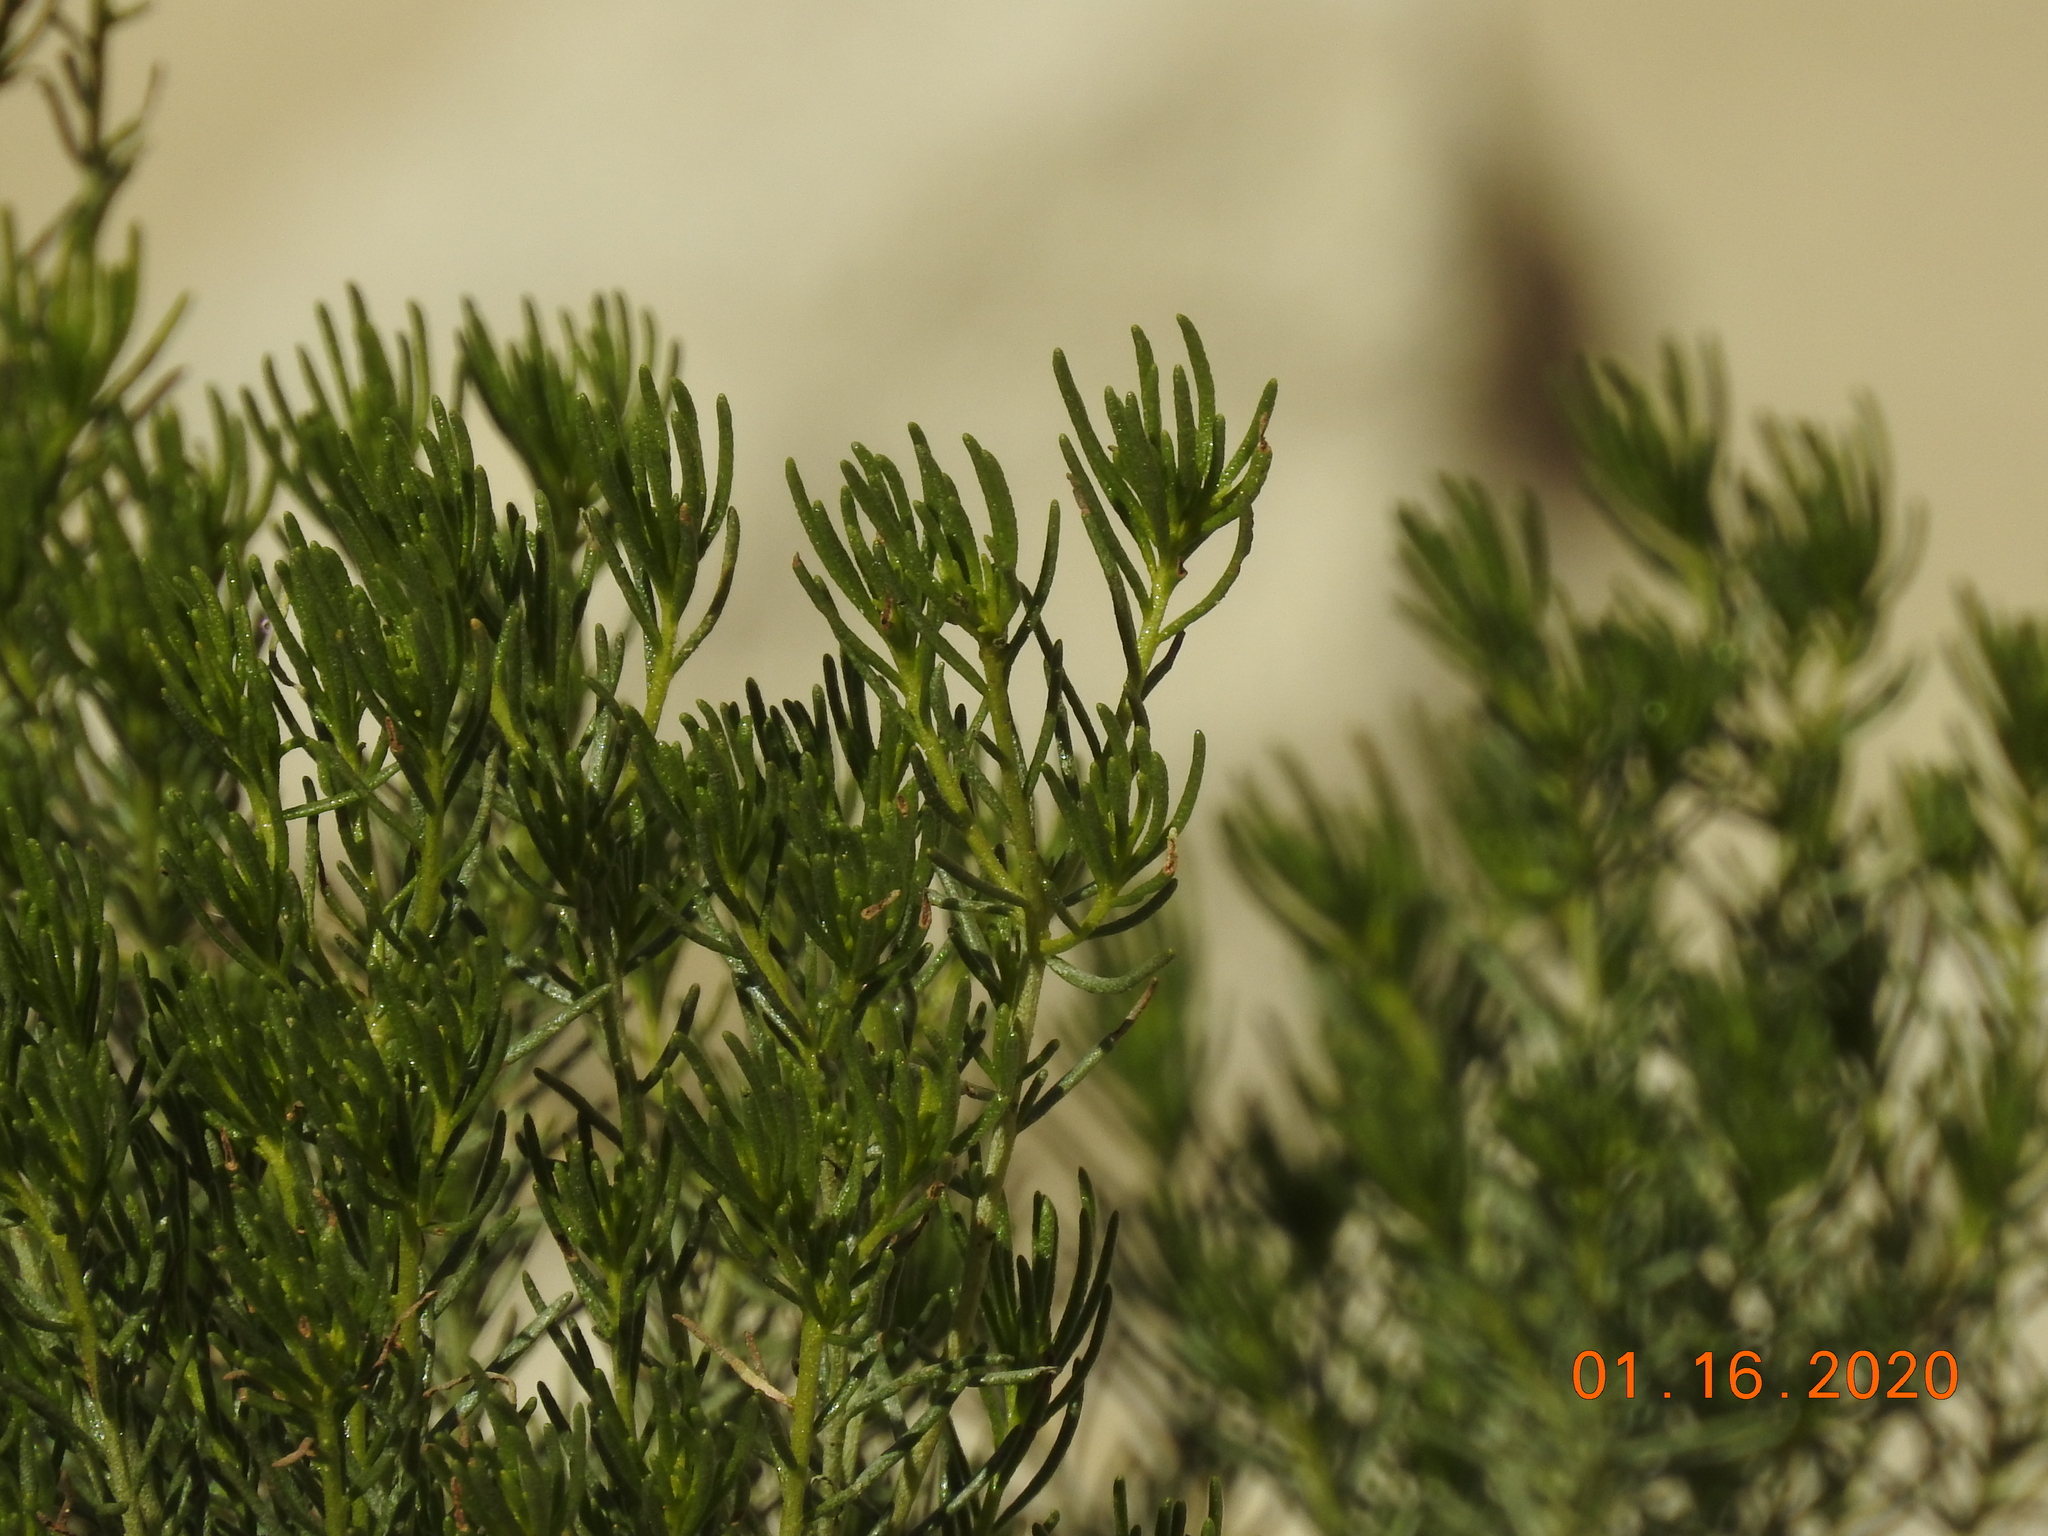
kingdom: Plantae
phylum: Tracheophyta
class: Magnoliopsida
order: Asterales
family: Asteraceae
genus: Peucephyllum
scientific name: Peucephyllum schottii
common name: Pygmy-cedar
